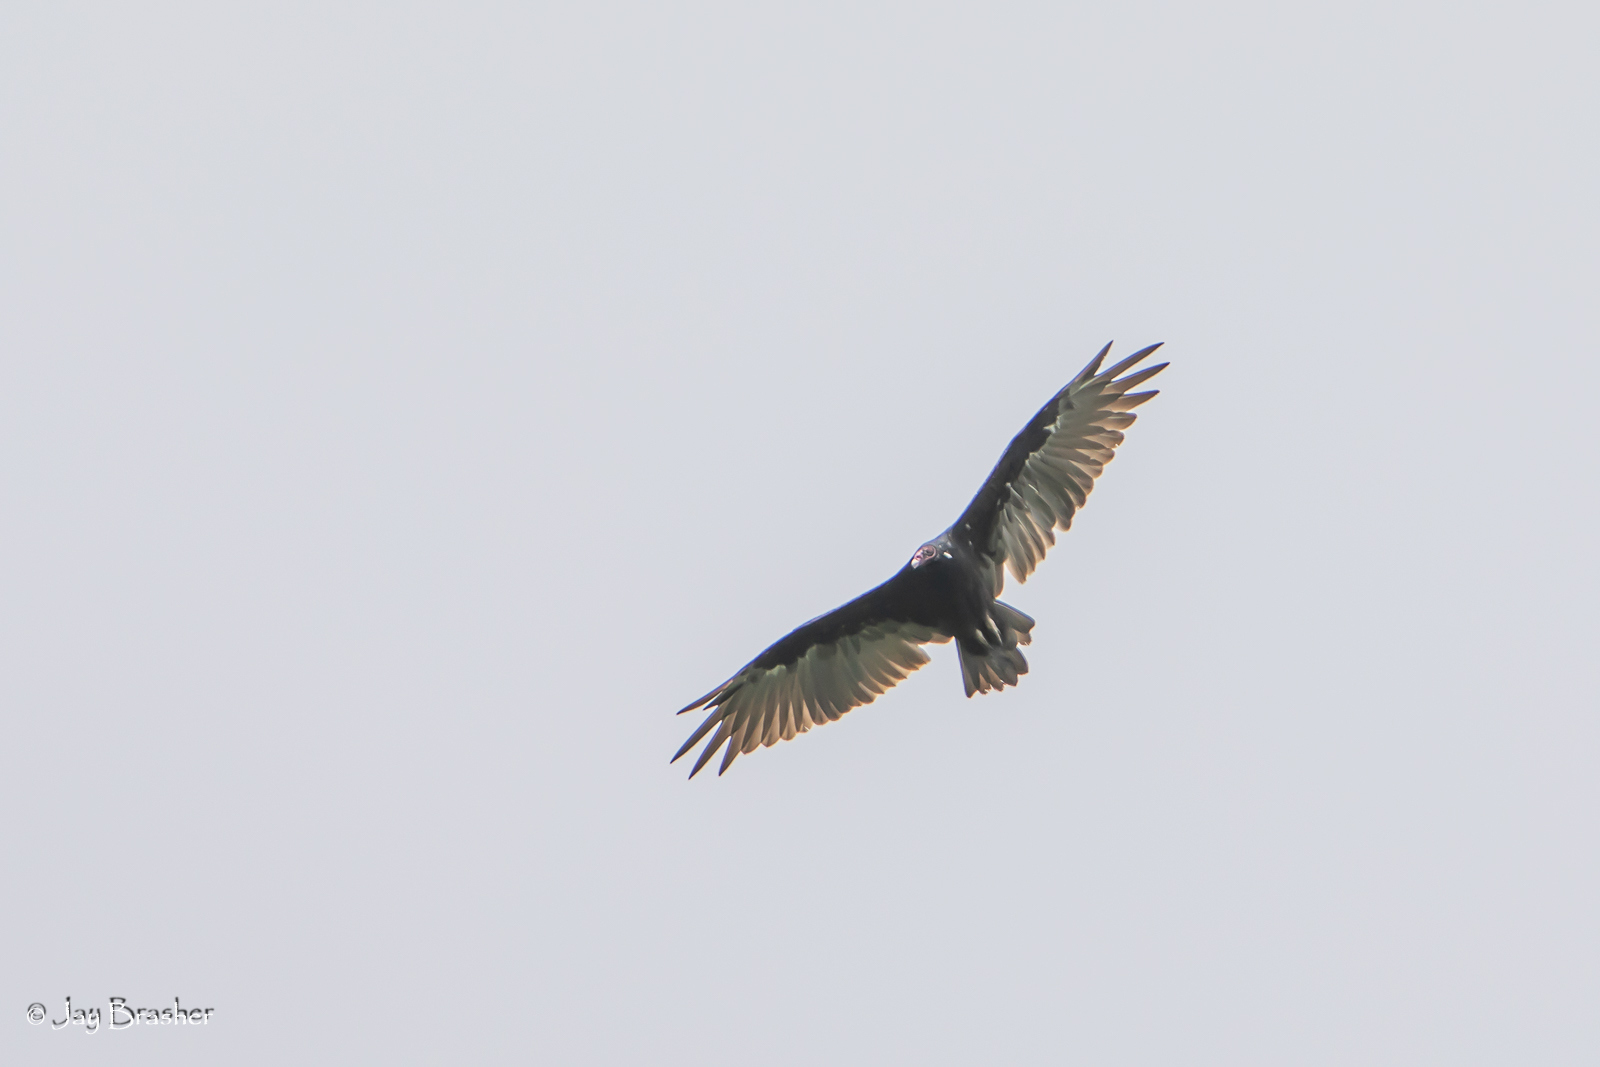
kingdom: Animalia
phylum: Chordata
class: Aves
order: Accipitriformes
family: Cathartidae
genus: Cathartes
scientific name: Cathartes aura
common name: Turkey vulture
